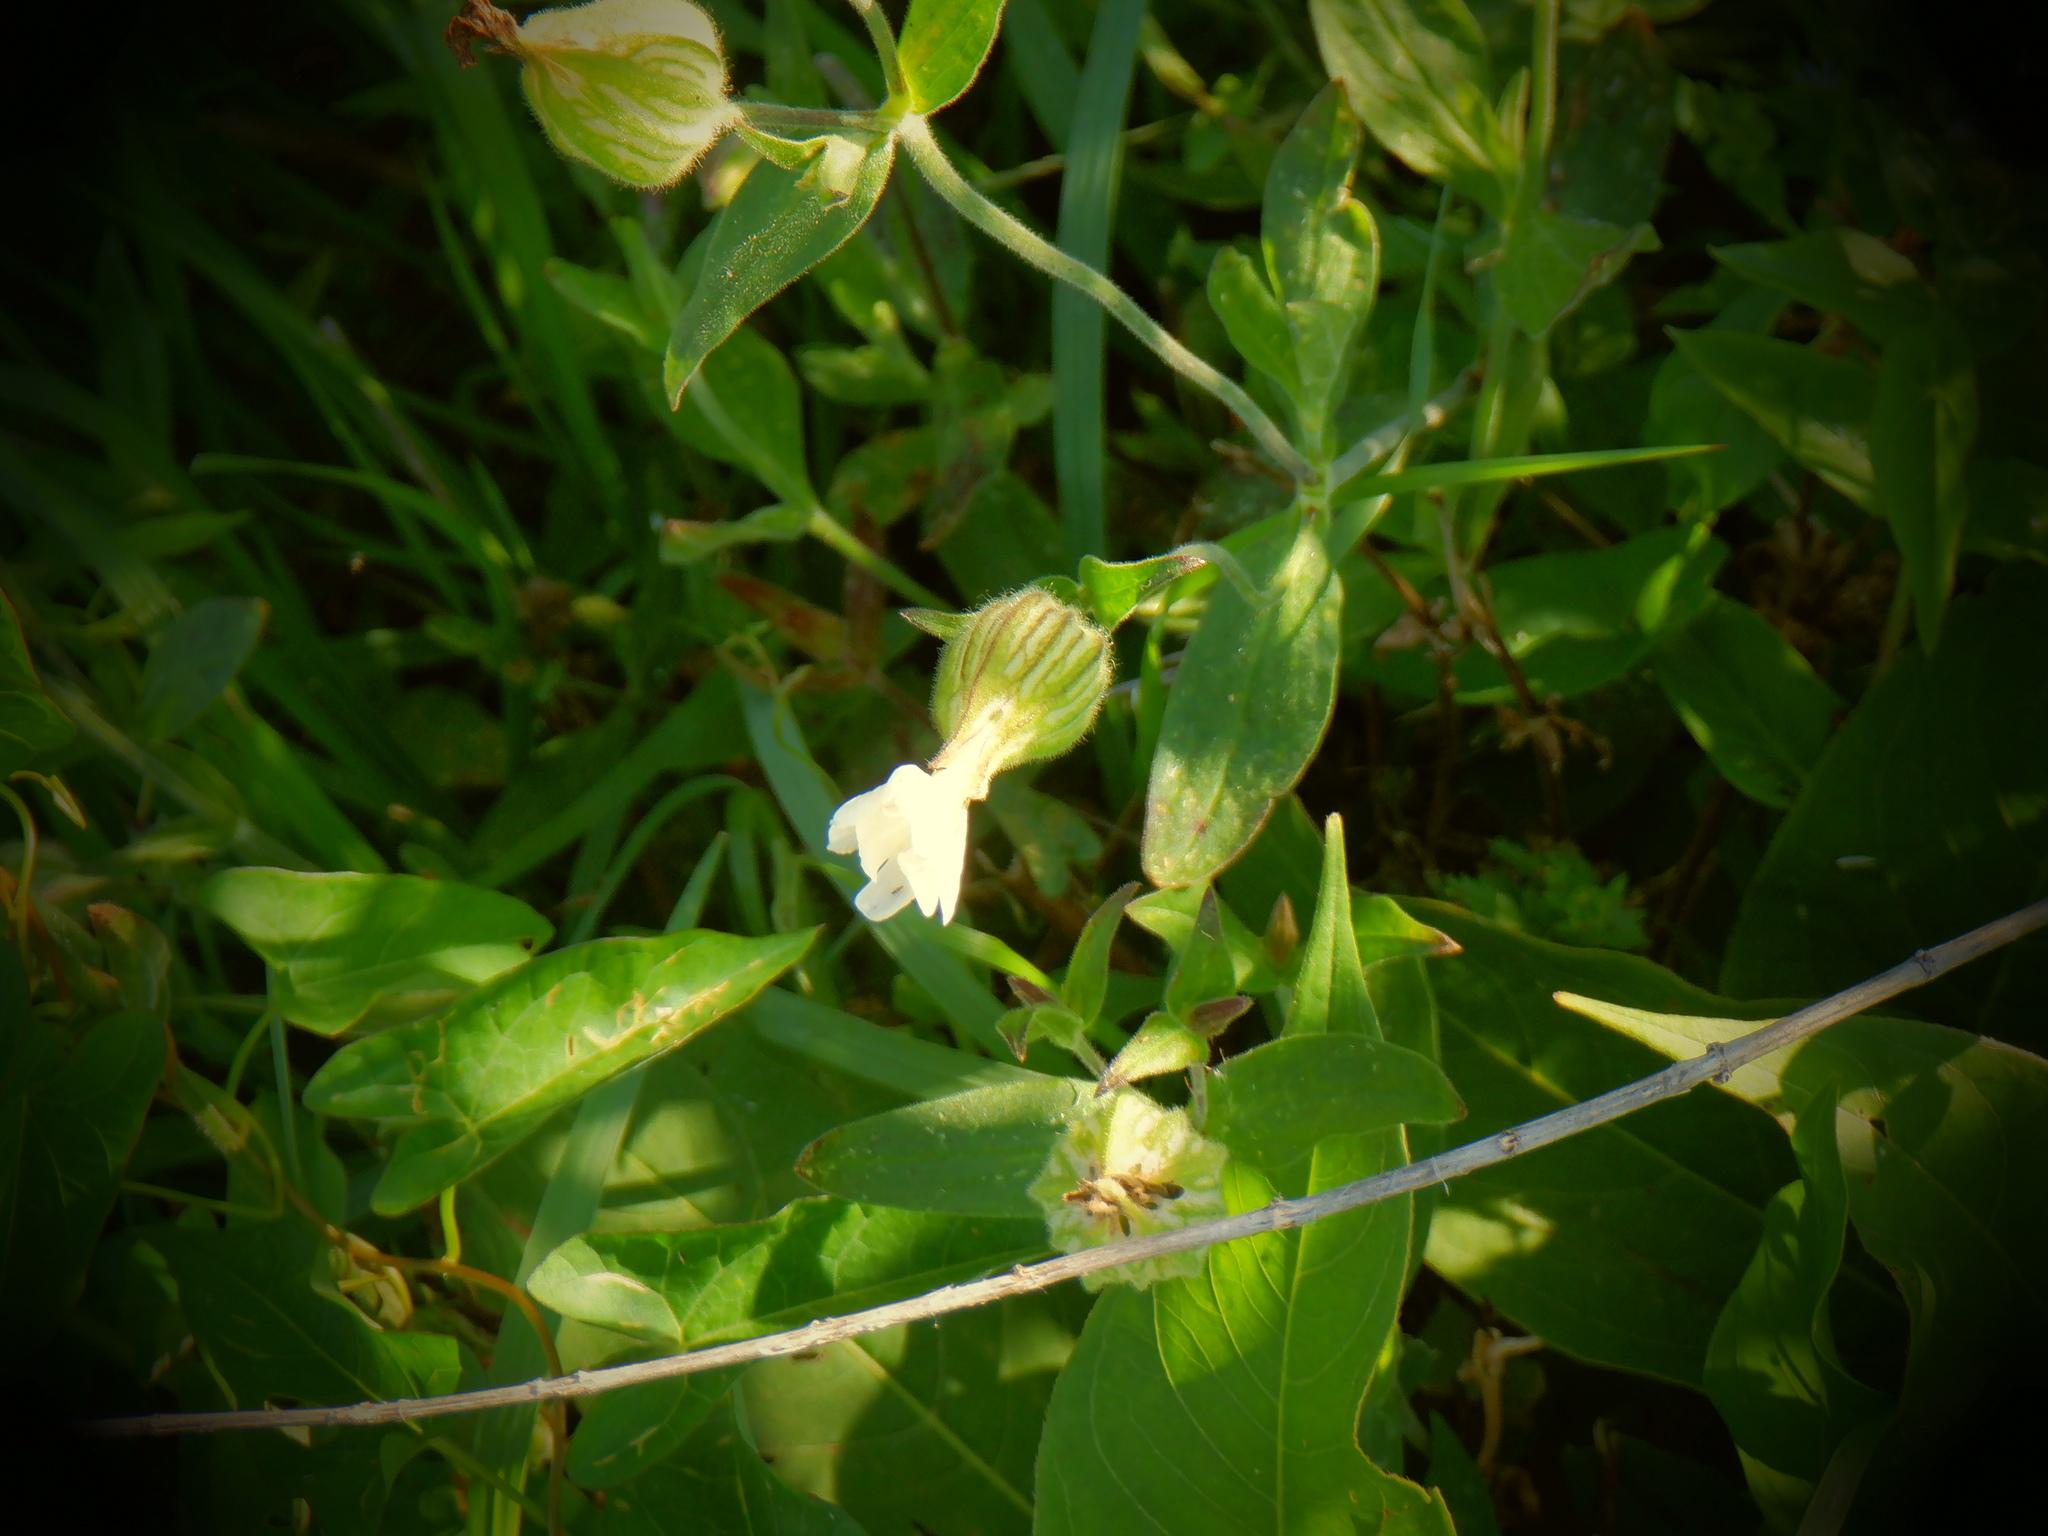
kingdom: Plantae
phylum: Tracheophyta
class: Magnoliopsida
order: Caryophyllales
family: Caryophyllaceae
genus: Silene
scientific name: Silene latifolia
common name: White campion
